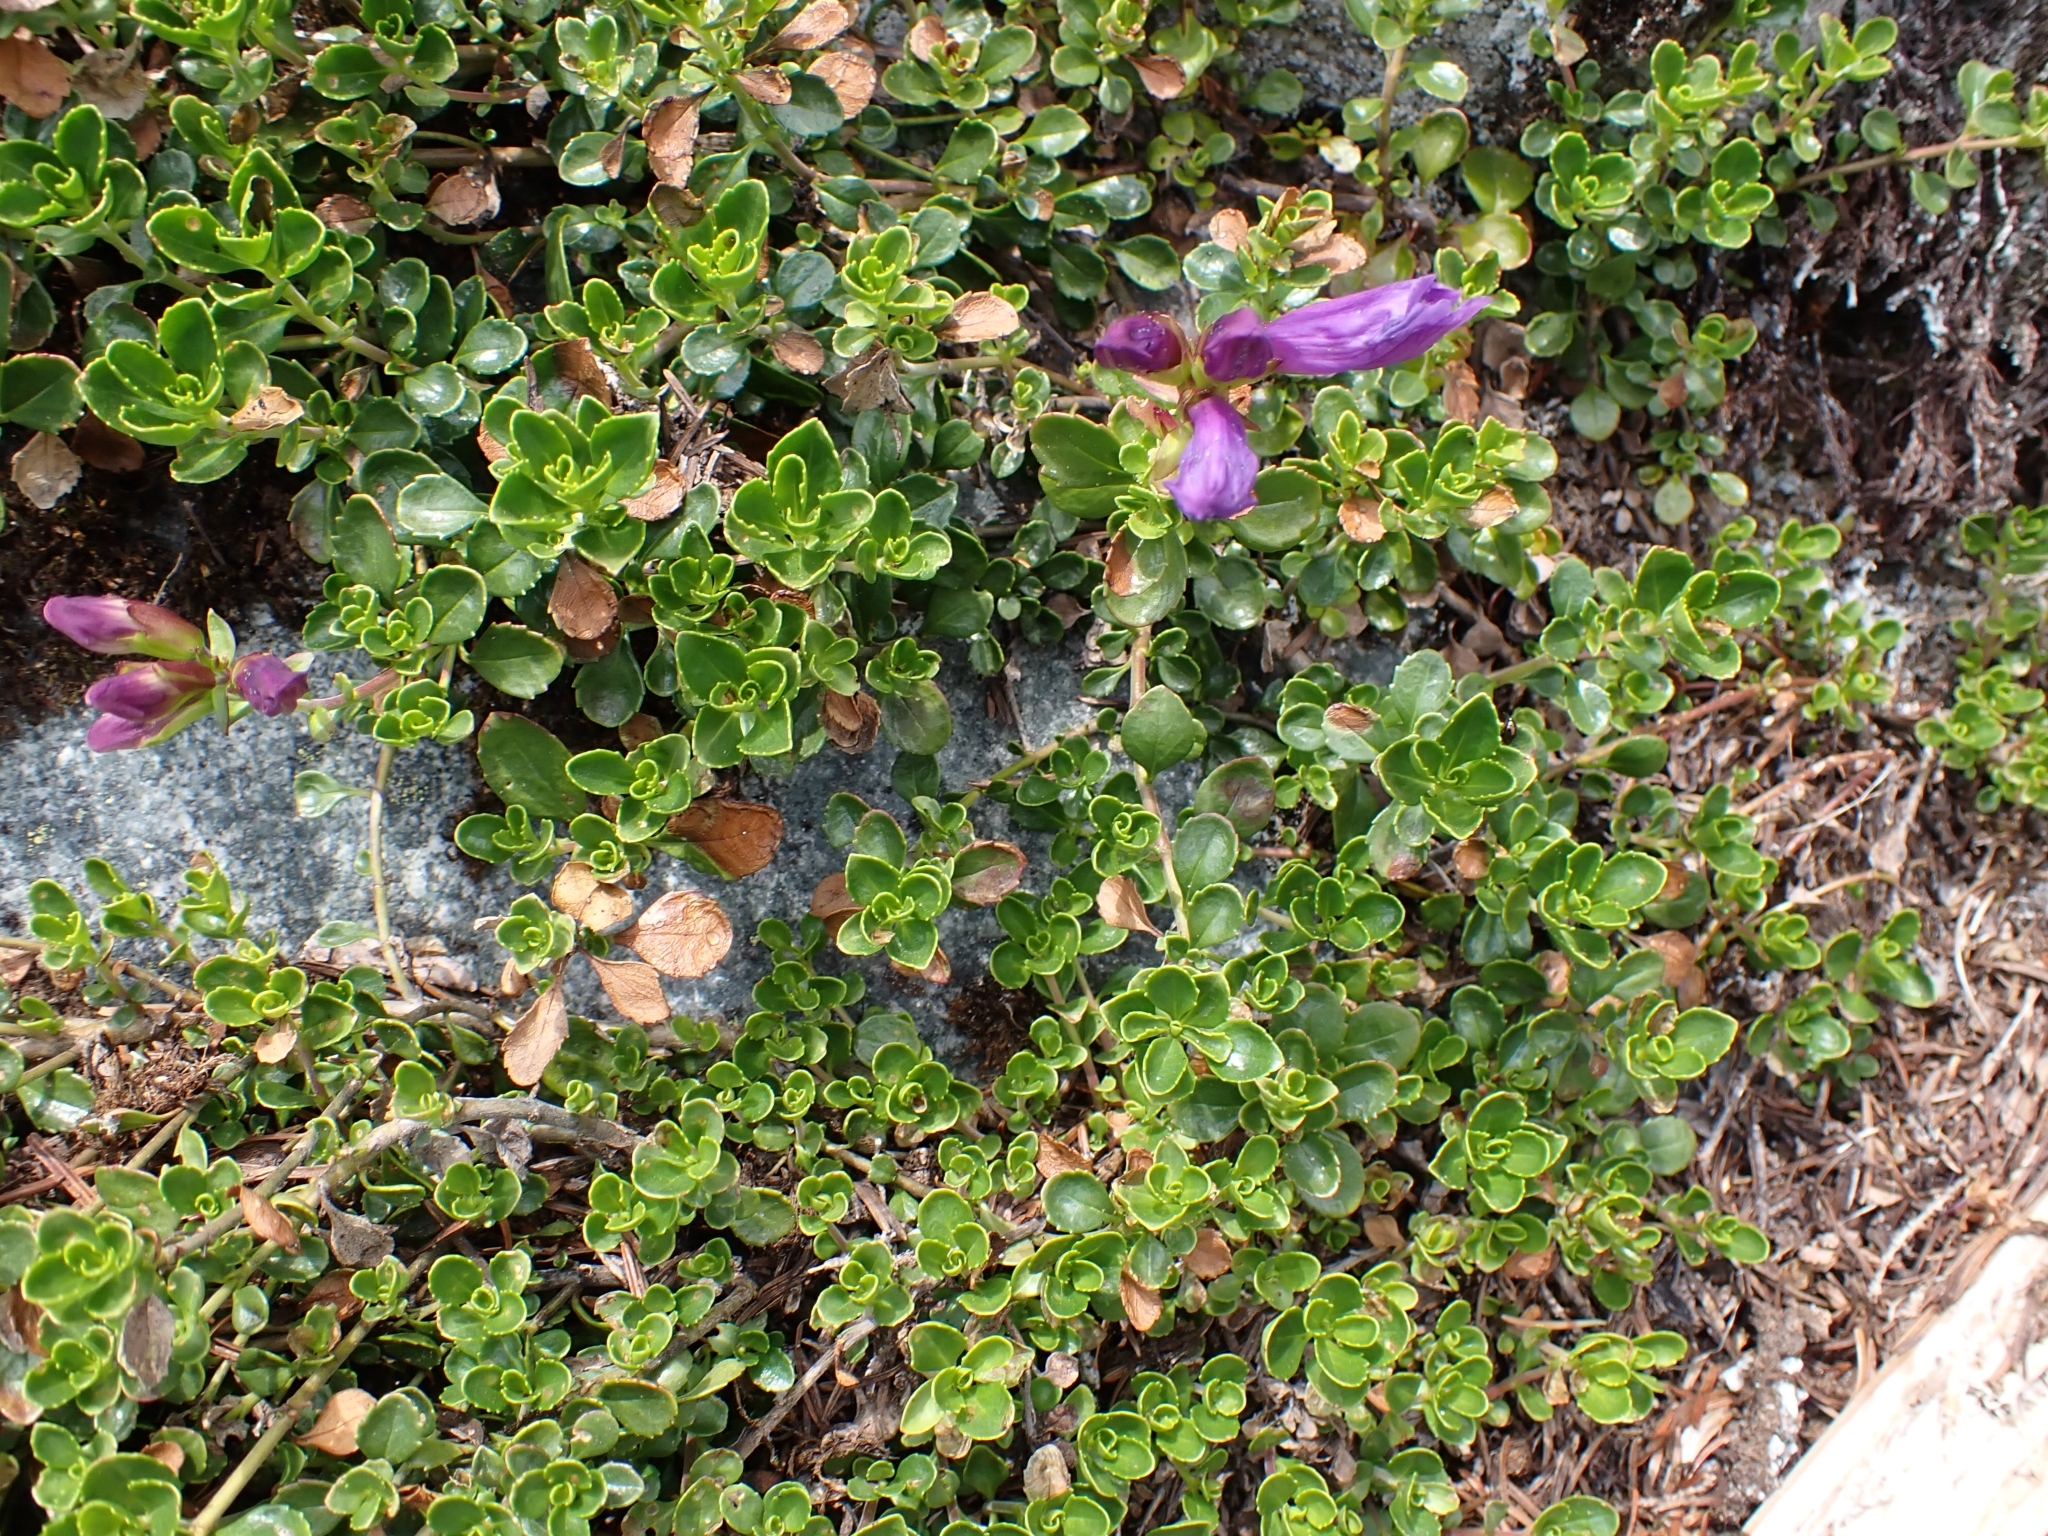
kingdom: Plantae
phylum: Tracheophyta
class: Magnoliopsida
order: Lamiales
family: Plantaginaceae
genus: Penstemon
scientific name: Penstemon davidsonii
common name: Davidson's penstemon
